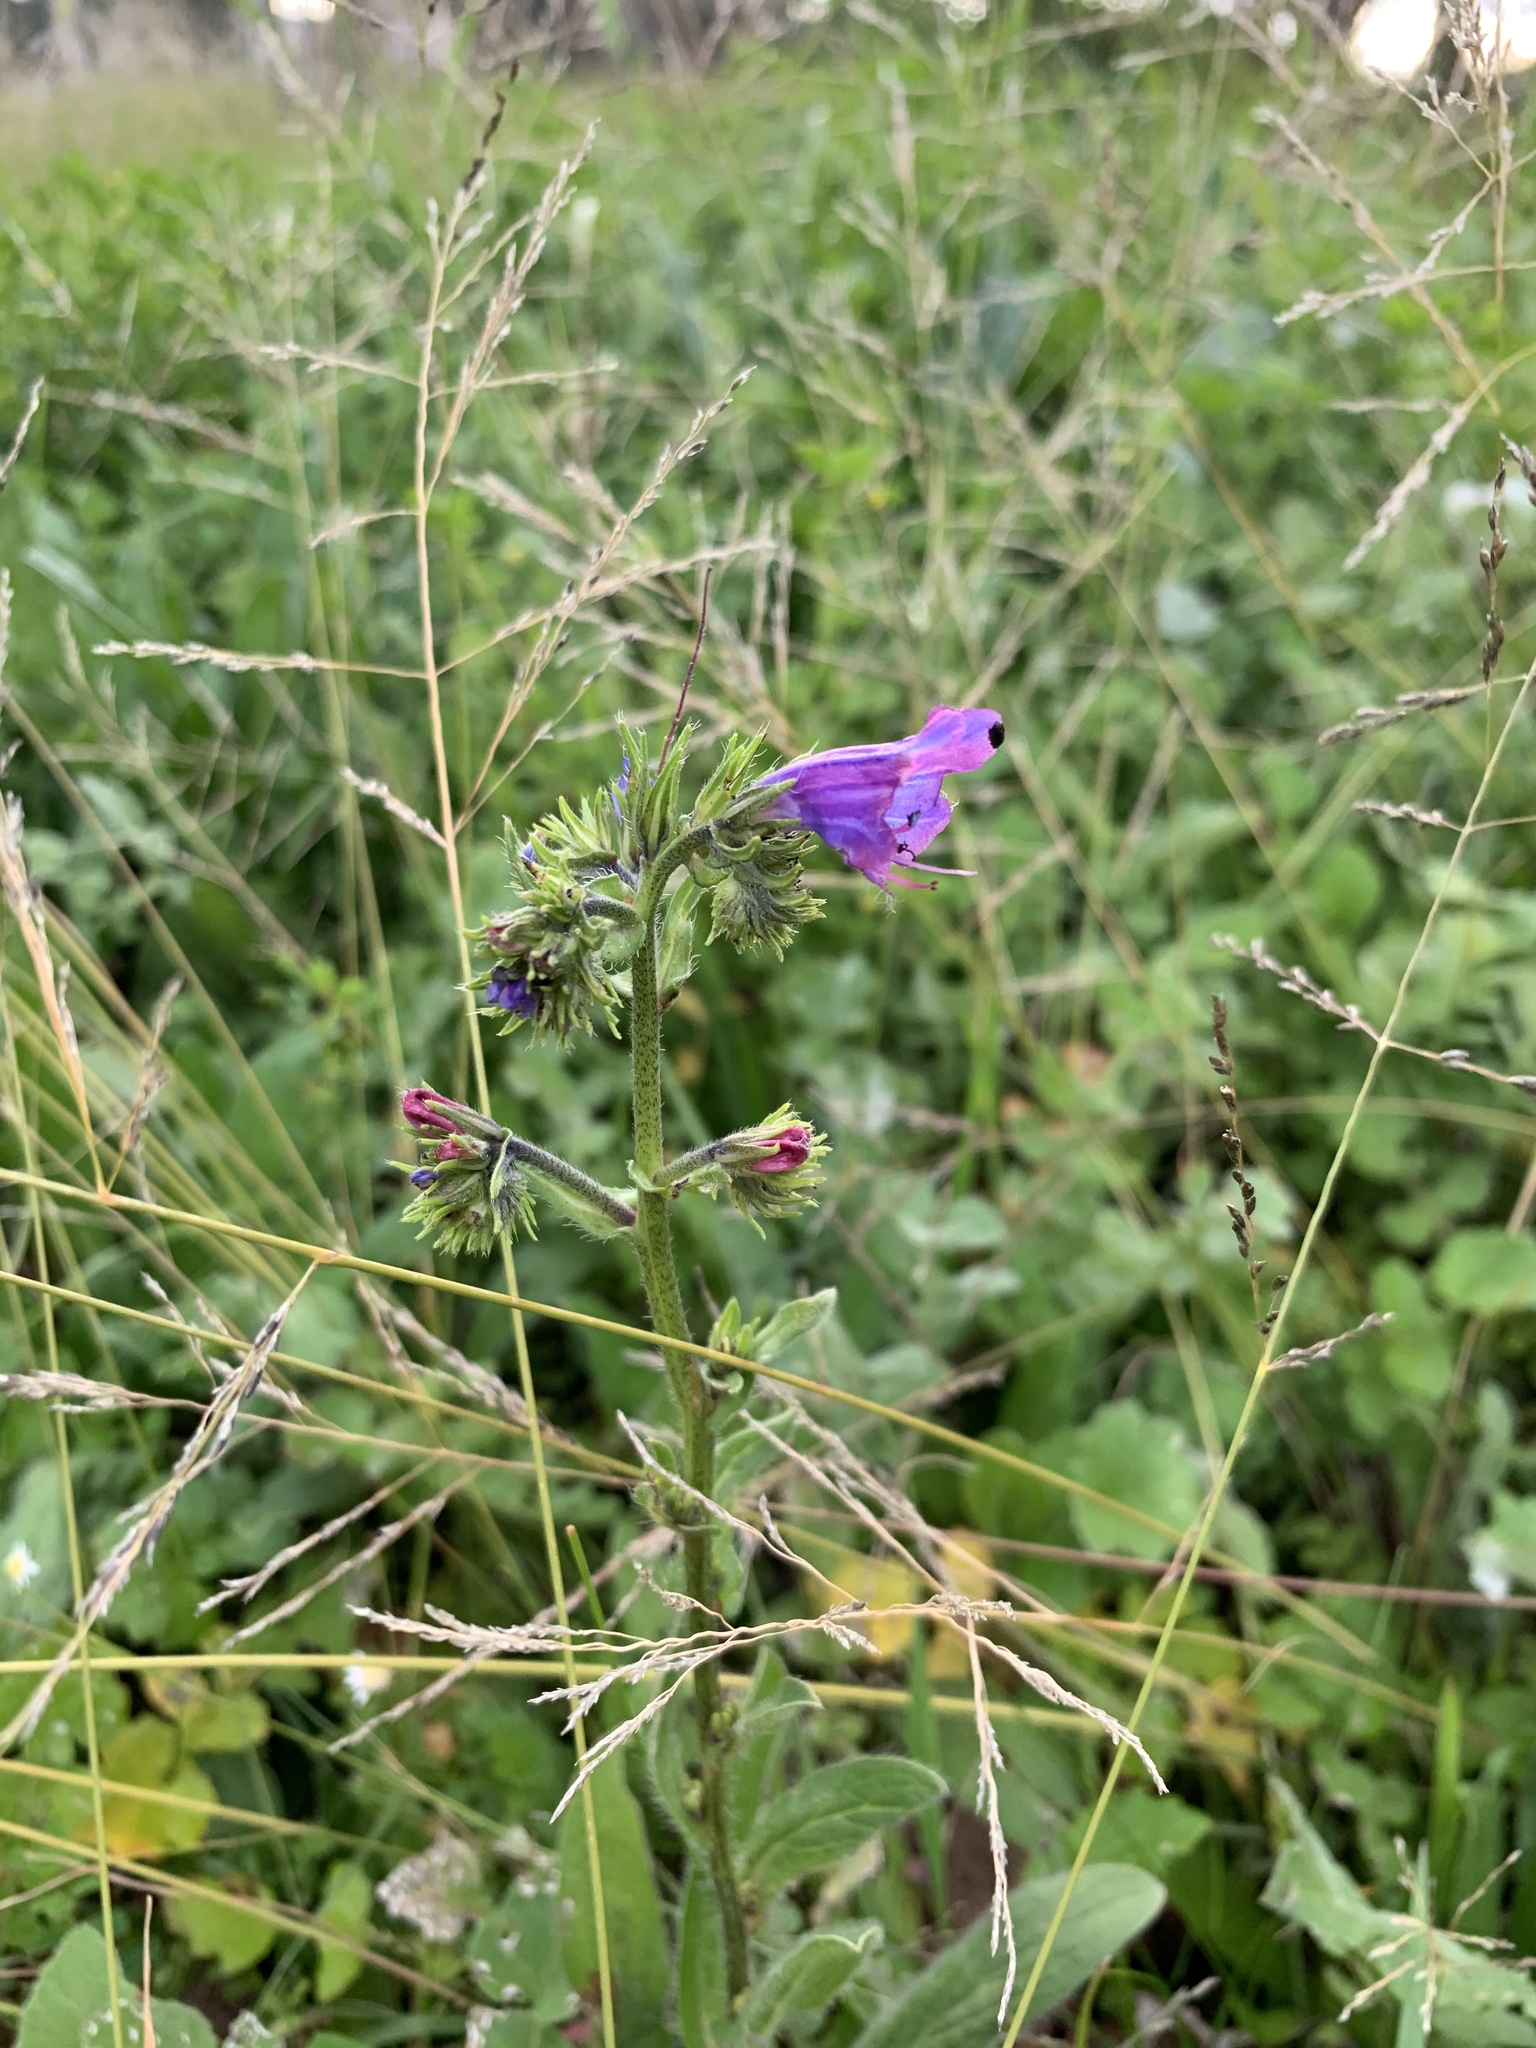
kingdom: Plantae
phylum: Tracheophyta
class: Magnoliopsida
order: Boraginales
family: Boraginaceae
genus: Echium
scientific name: Echium plantagineum
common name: Purple viper's-bugloss
